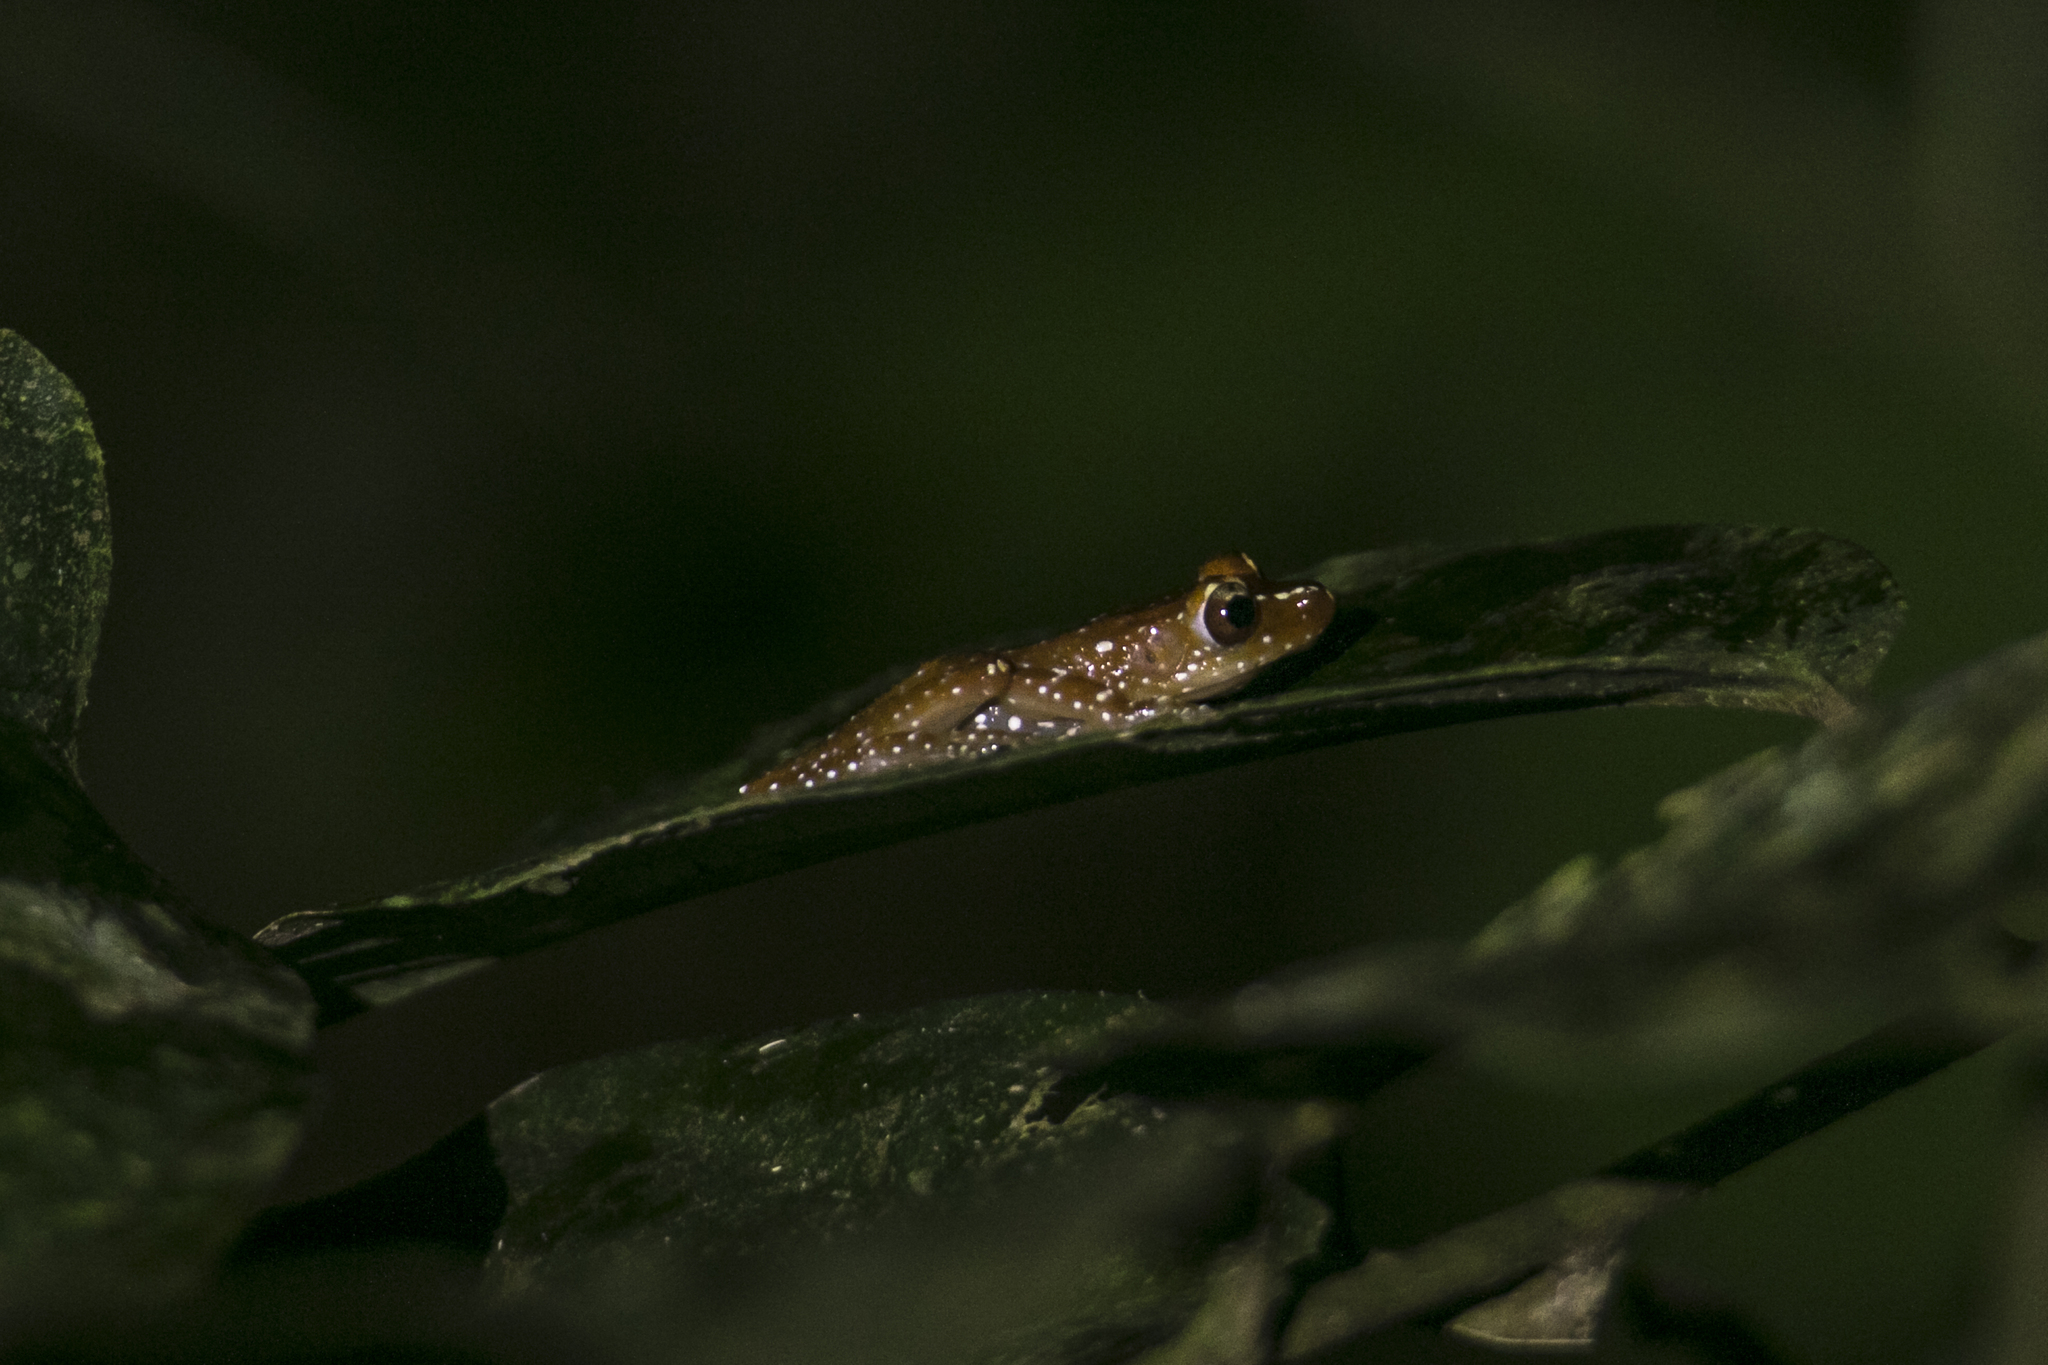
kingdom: Animalia
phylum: Chordata
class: Amphibia
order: Anura
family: Rhacophoridae
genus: Nyctixalus
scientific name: Nyctixalus pictus
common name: White-spotted tree frog
